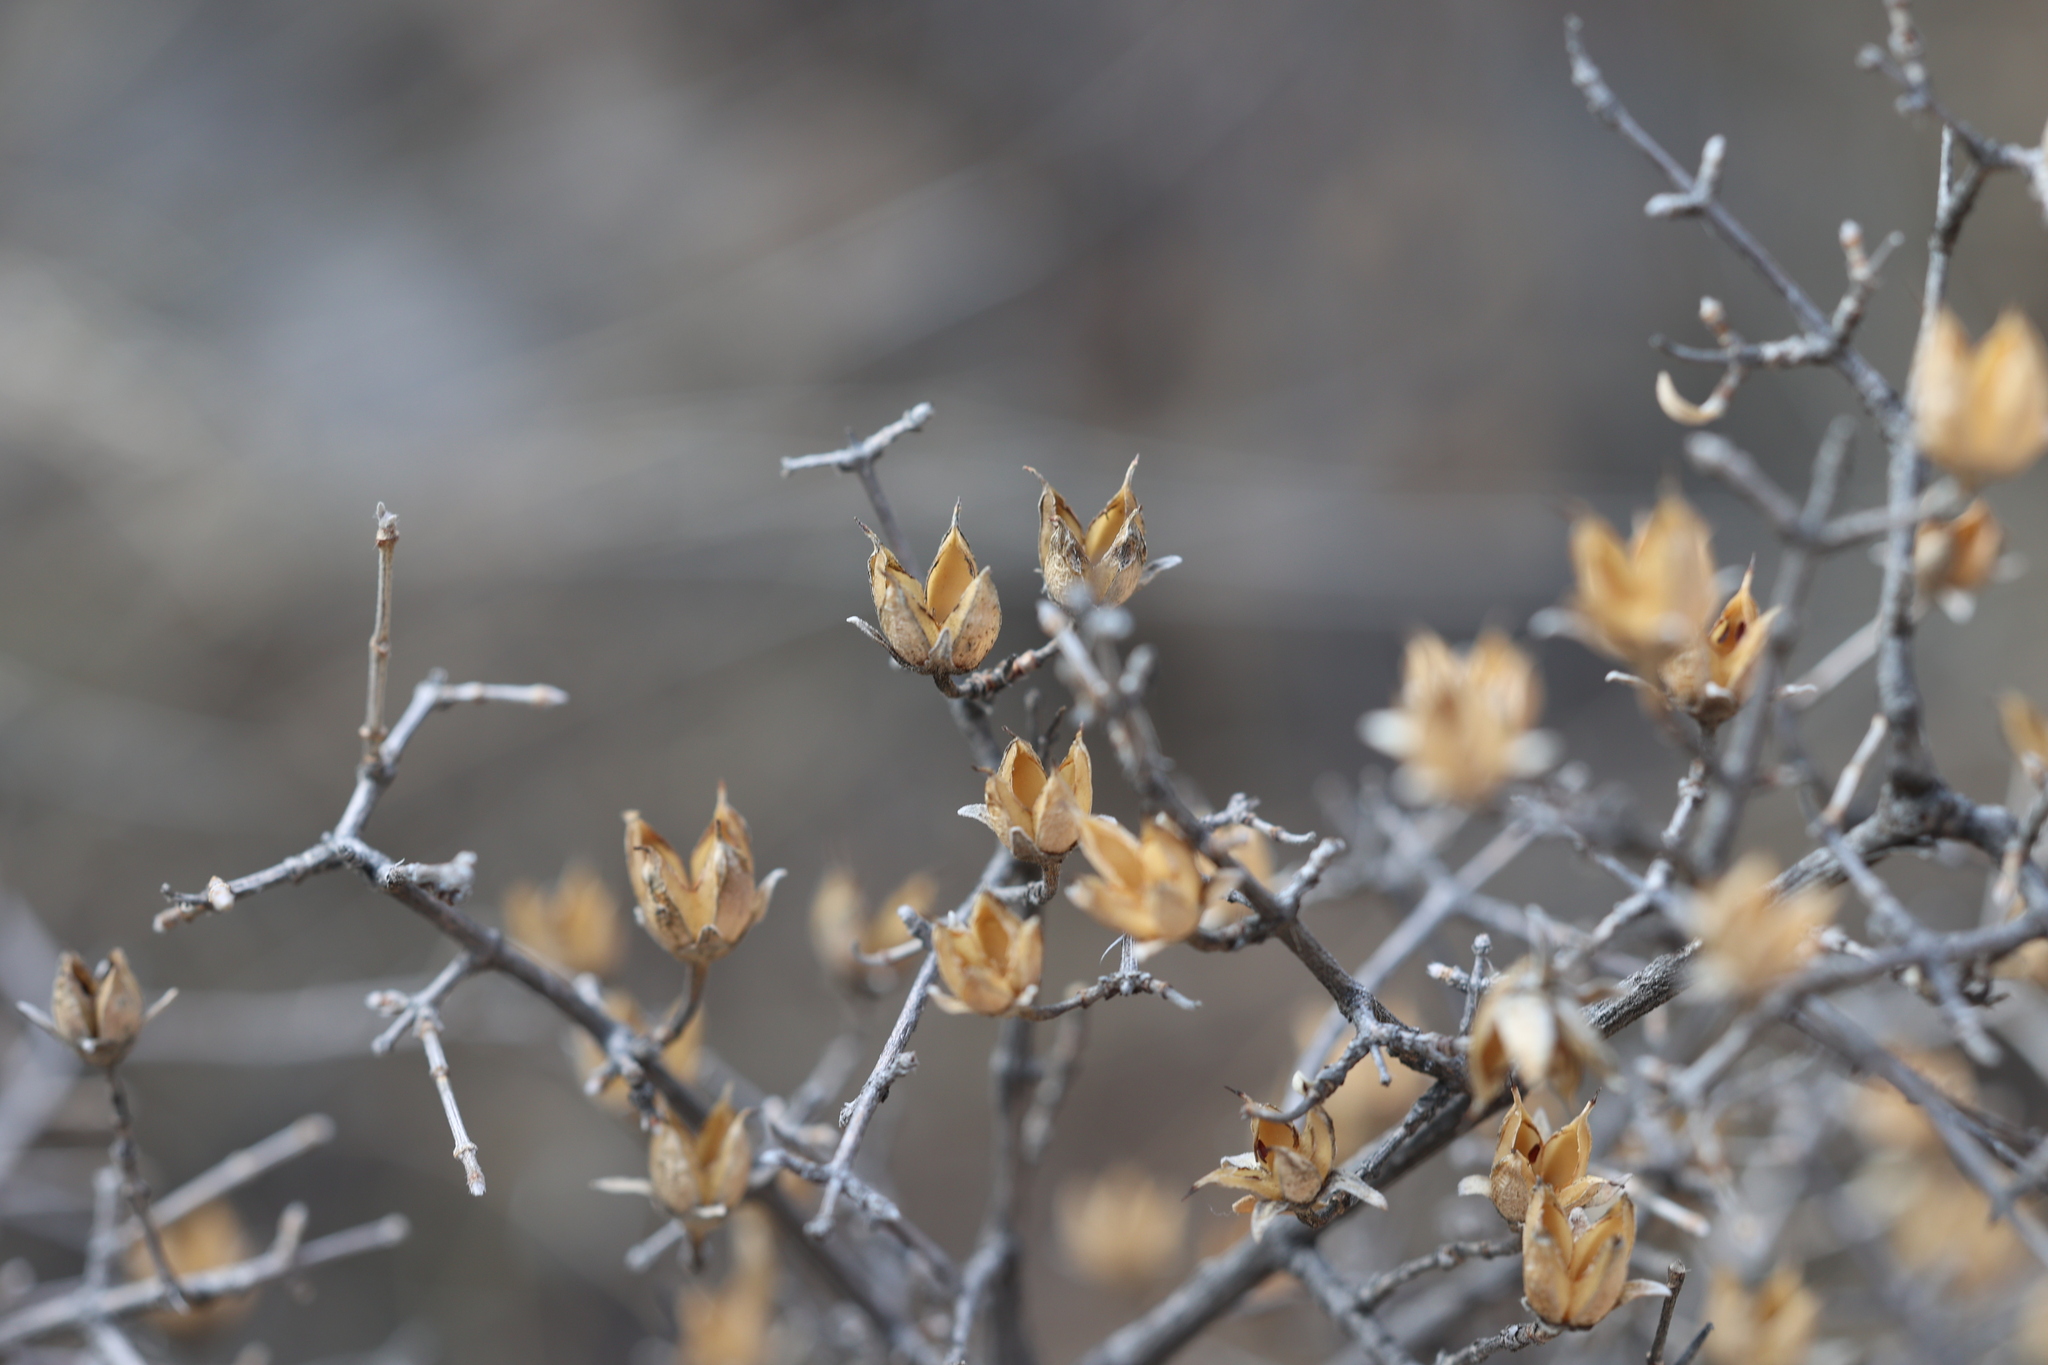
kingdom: Plantae
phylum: Tracheophyta
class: Magnoliopsida
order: Cornales
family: Hydrangeaceae
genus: Fendlera
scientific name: Fendlera rupicola
